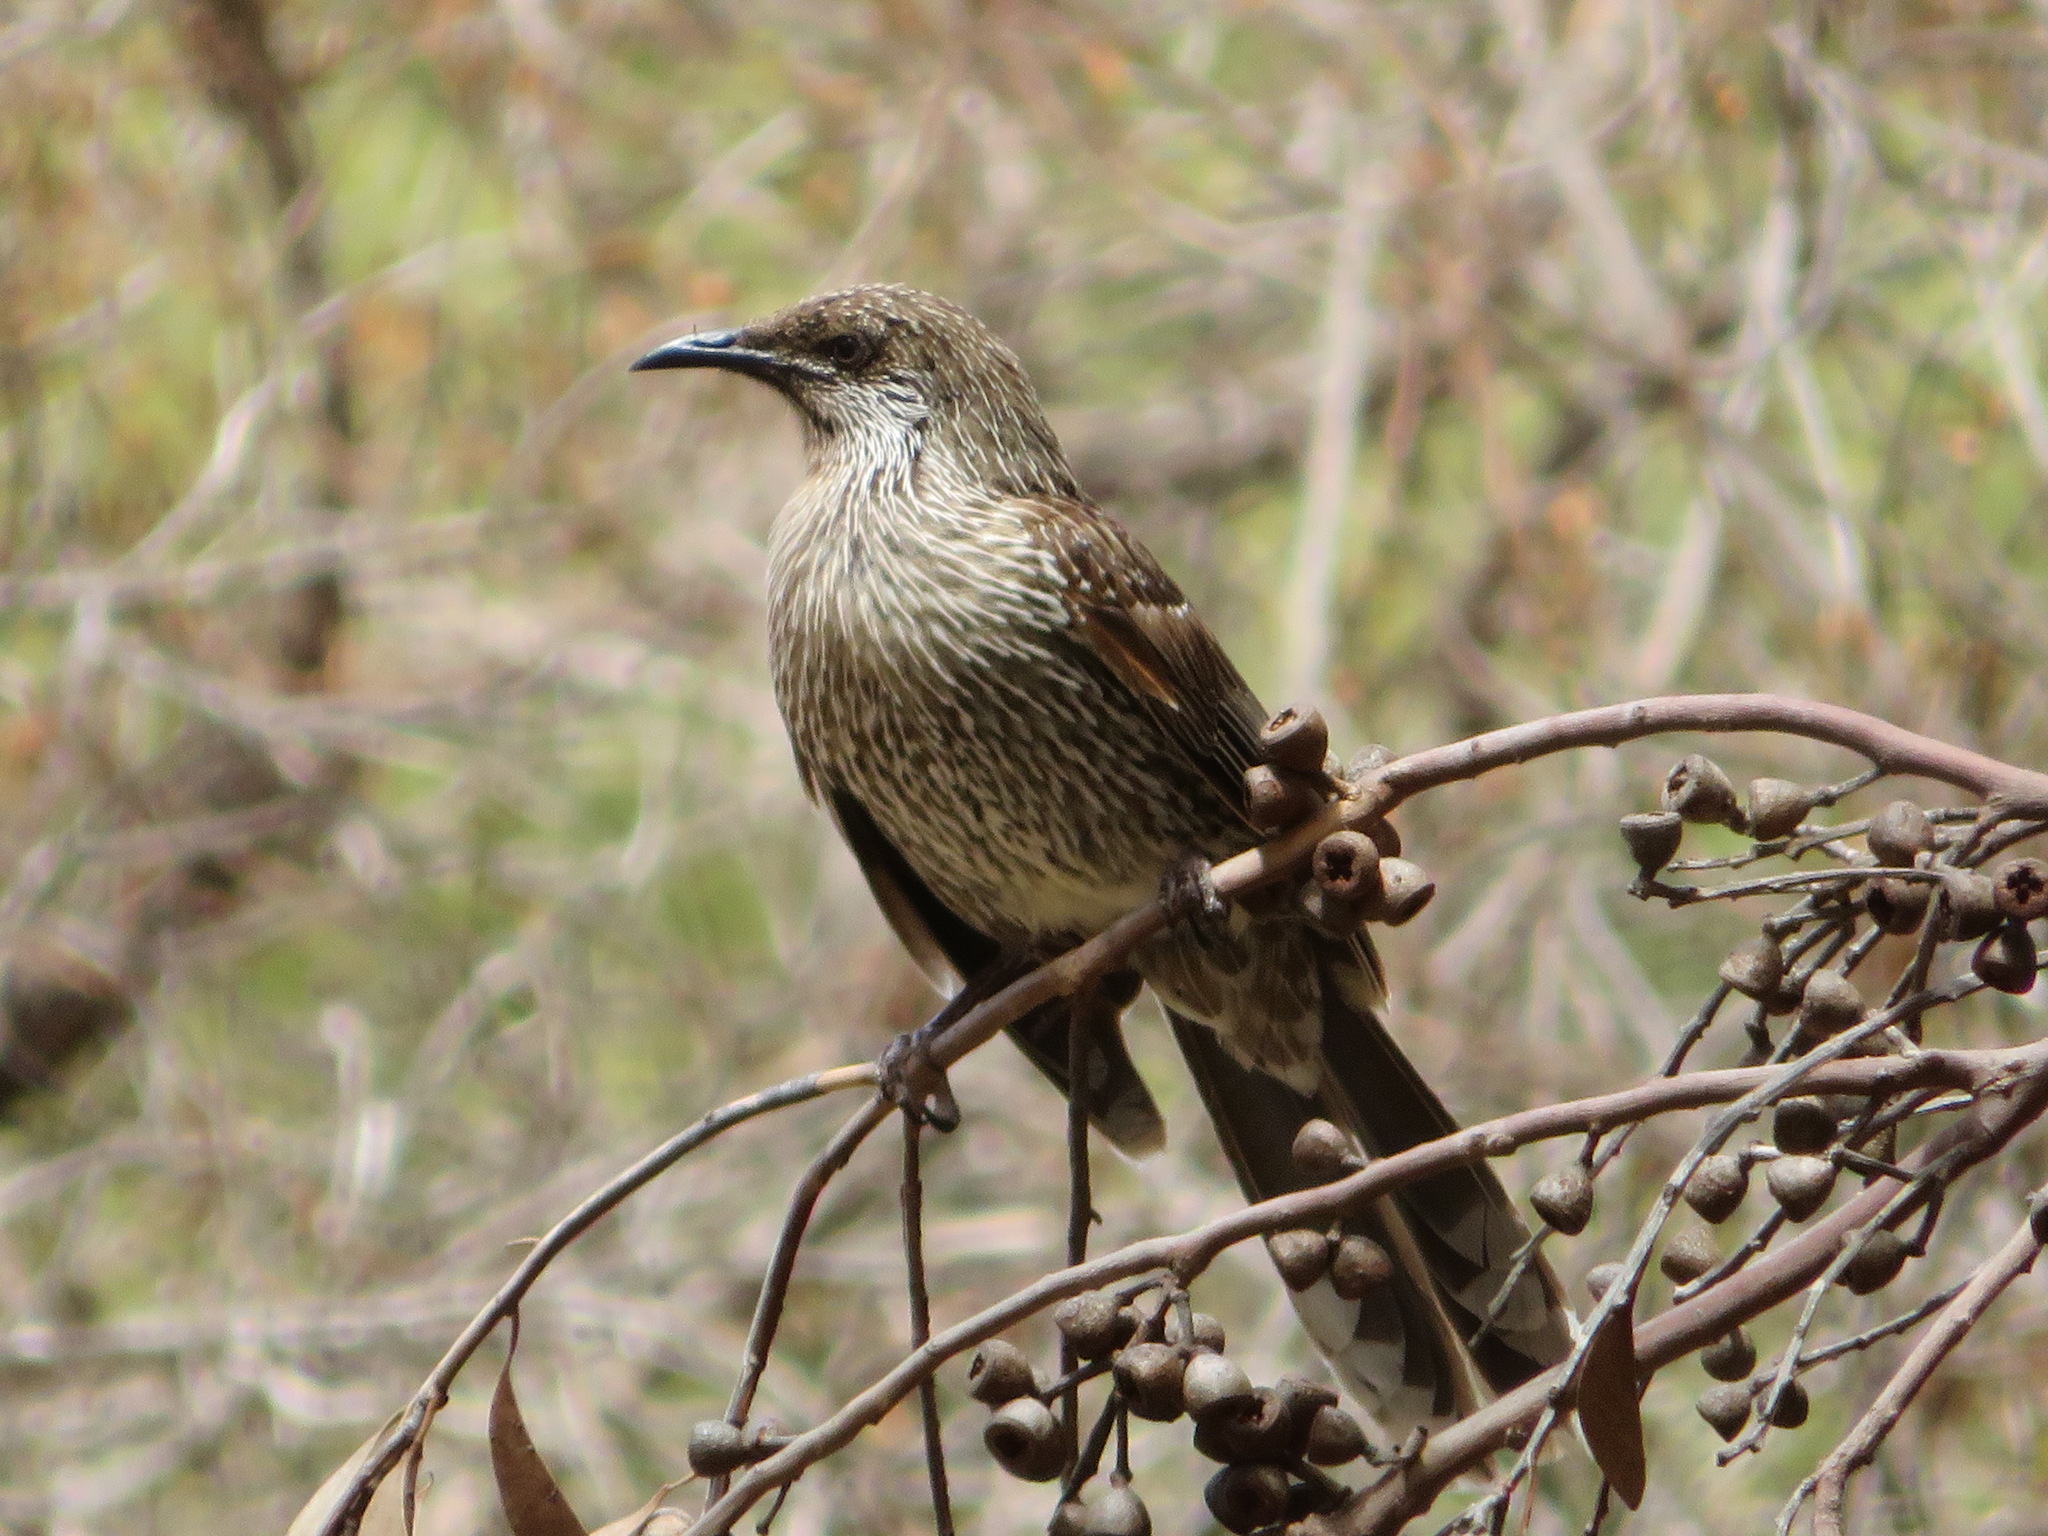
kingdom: Animalia
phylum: Chordata
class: Aves
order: Passeriformes
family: Meliphagidae
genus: Anthochaera
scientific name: Anthochaera chrysoptera
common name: Little wattlebird
